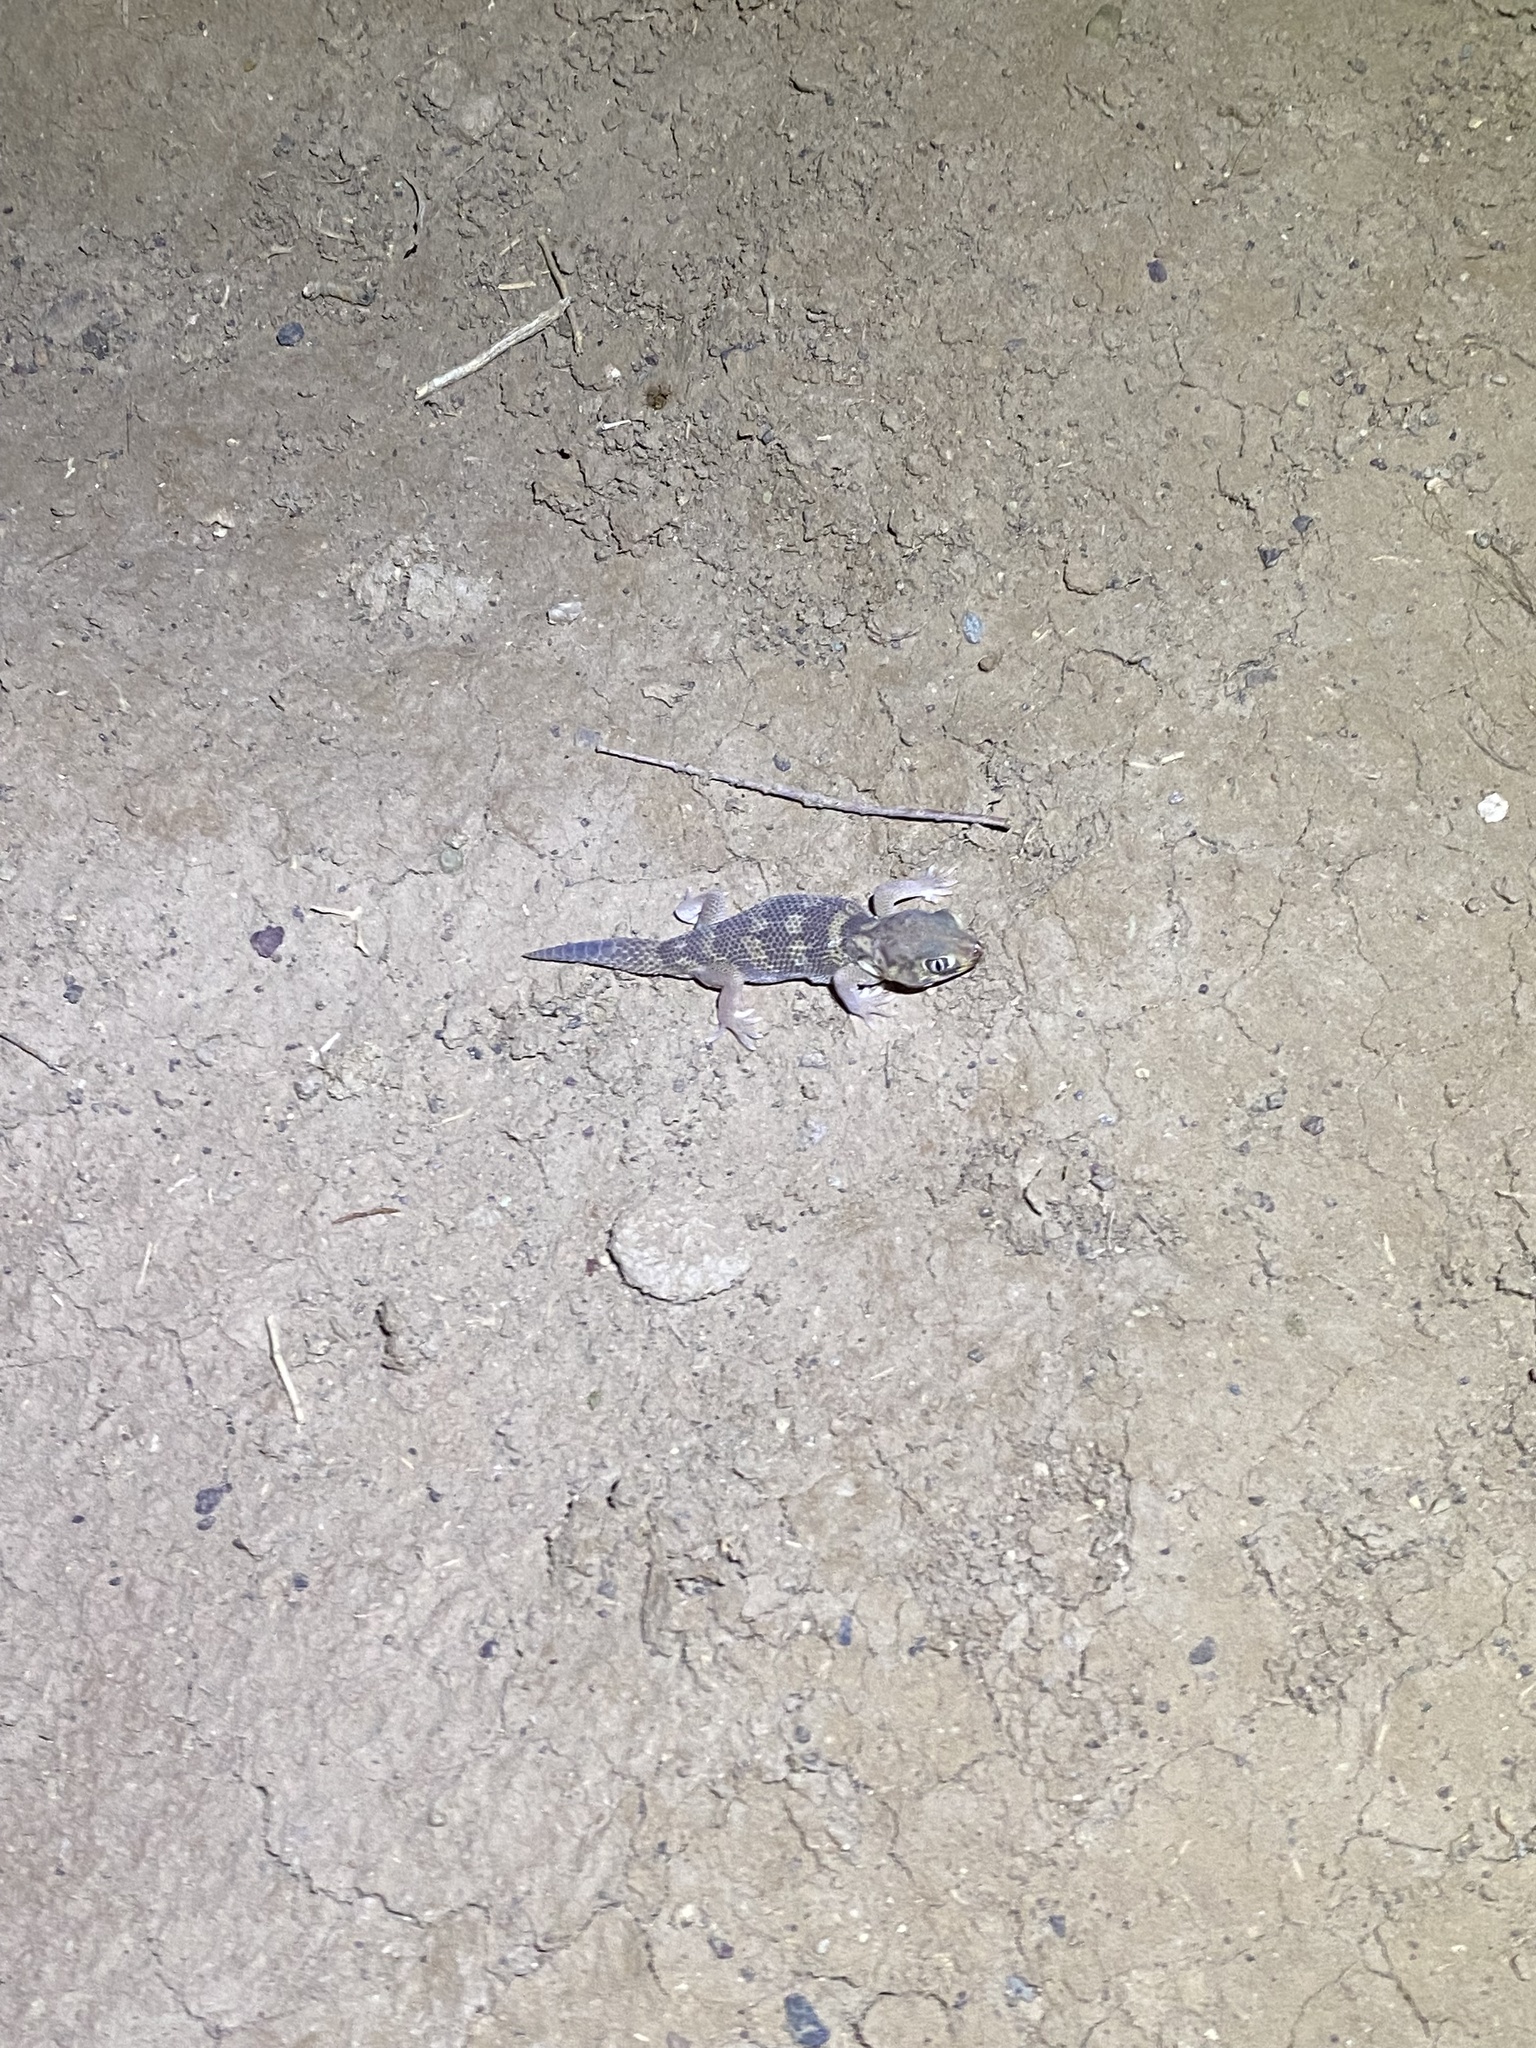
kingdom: Animalia
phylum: Chordata
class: Squamata
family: Sphaerodactylidae
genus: Teratoscincus
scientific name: Teratoscincus bedriagai
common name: Bedriaga's plate-tailed gecko
